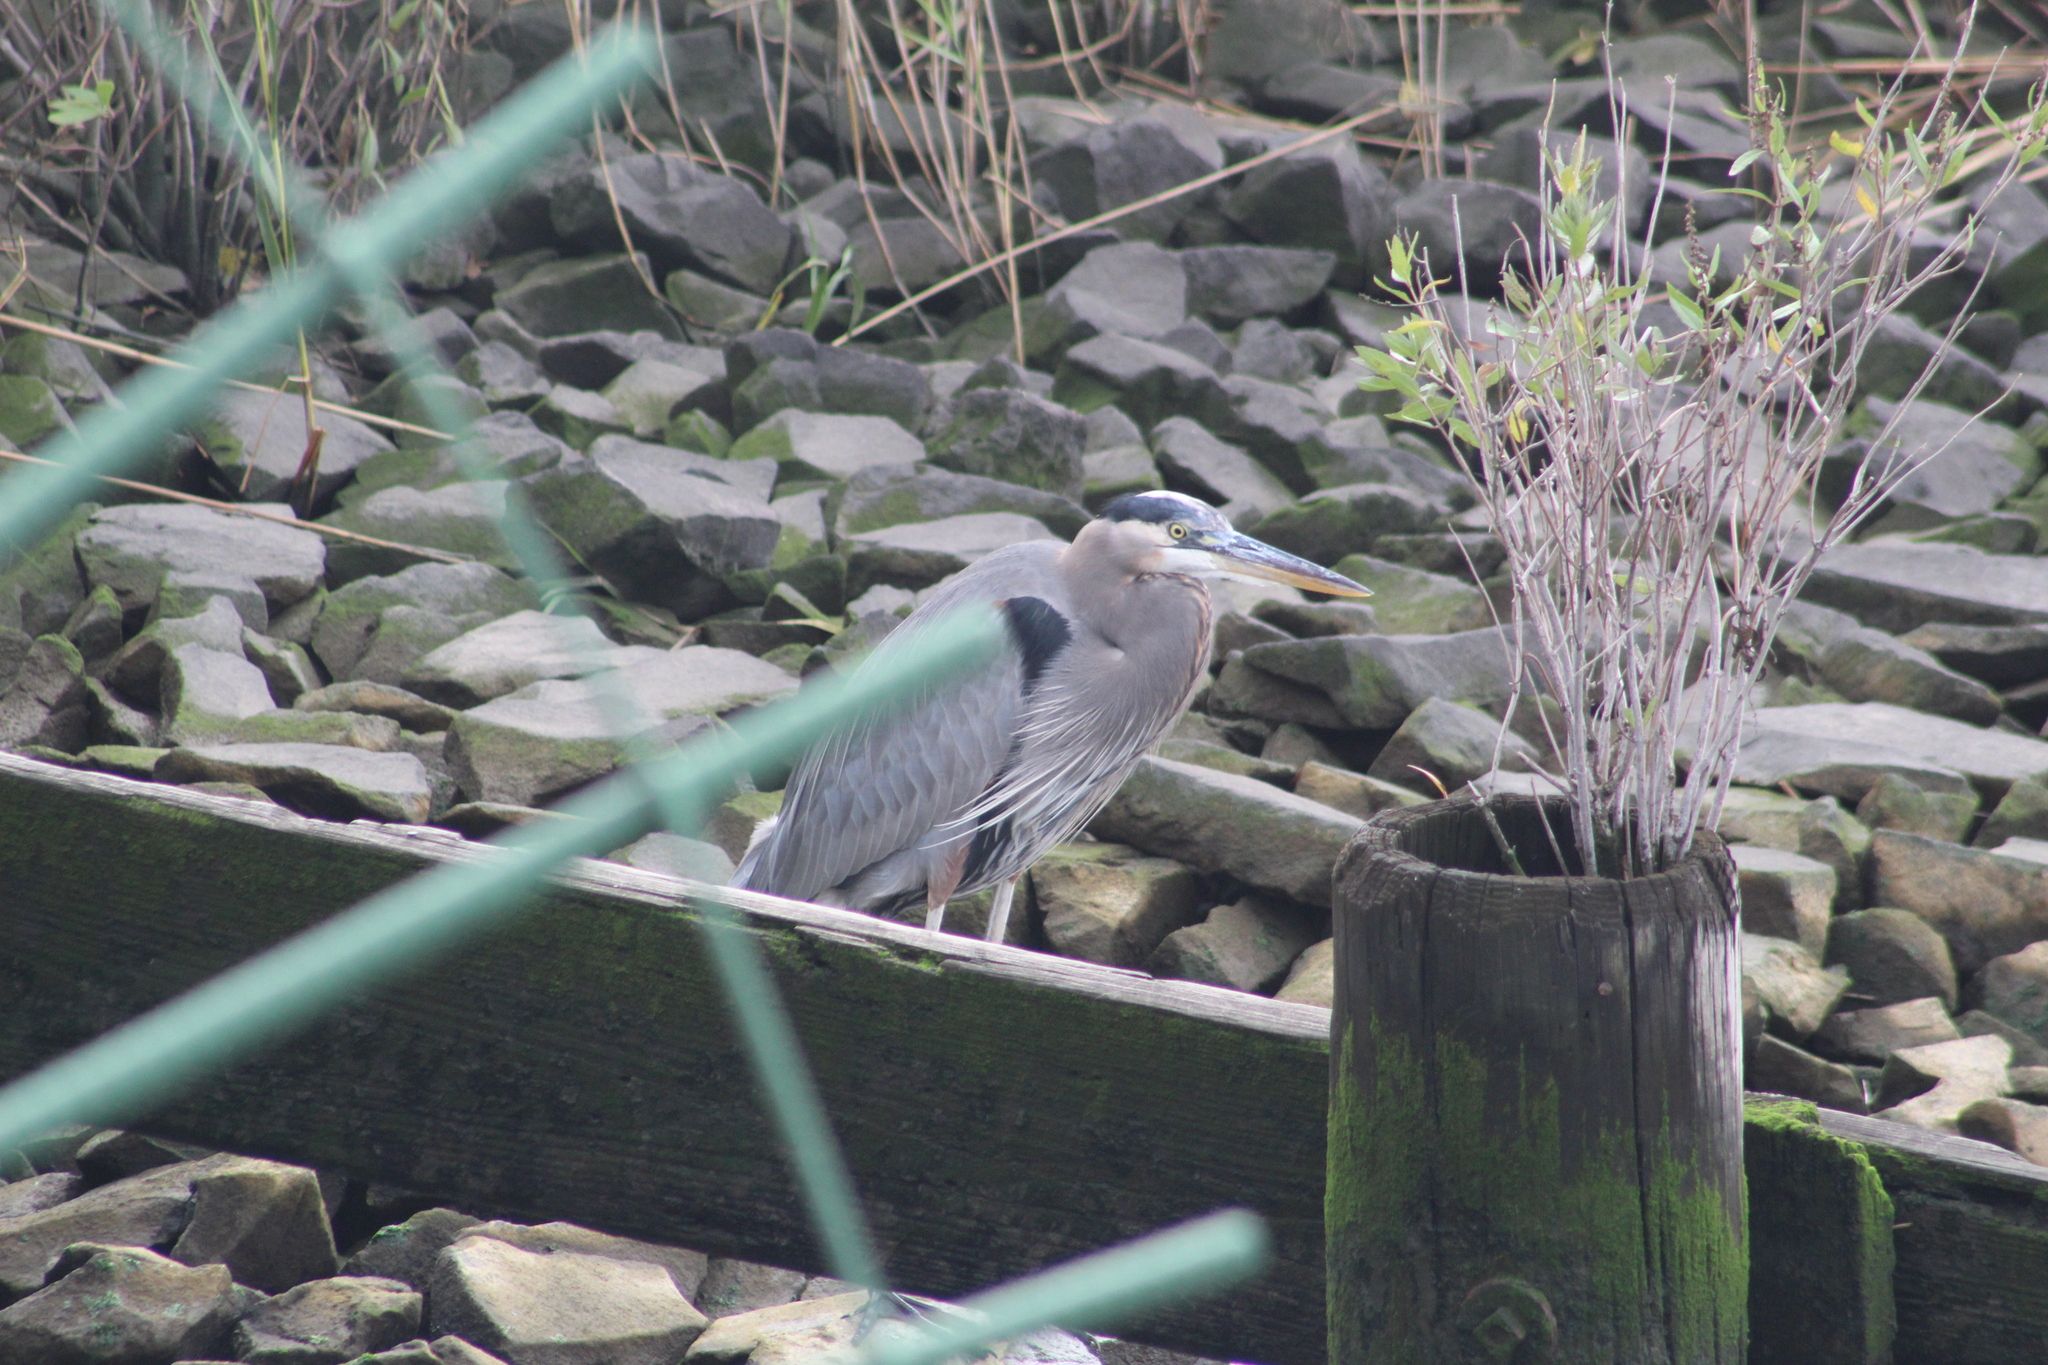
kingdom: Animalia
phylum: Chordata
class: Aves
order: Pelecaniformes
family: Ardeidae
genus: Ardea
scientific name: Ardea herodias
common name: Great blue heron
